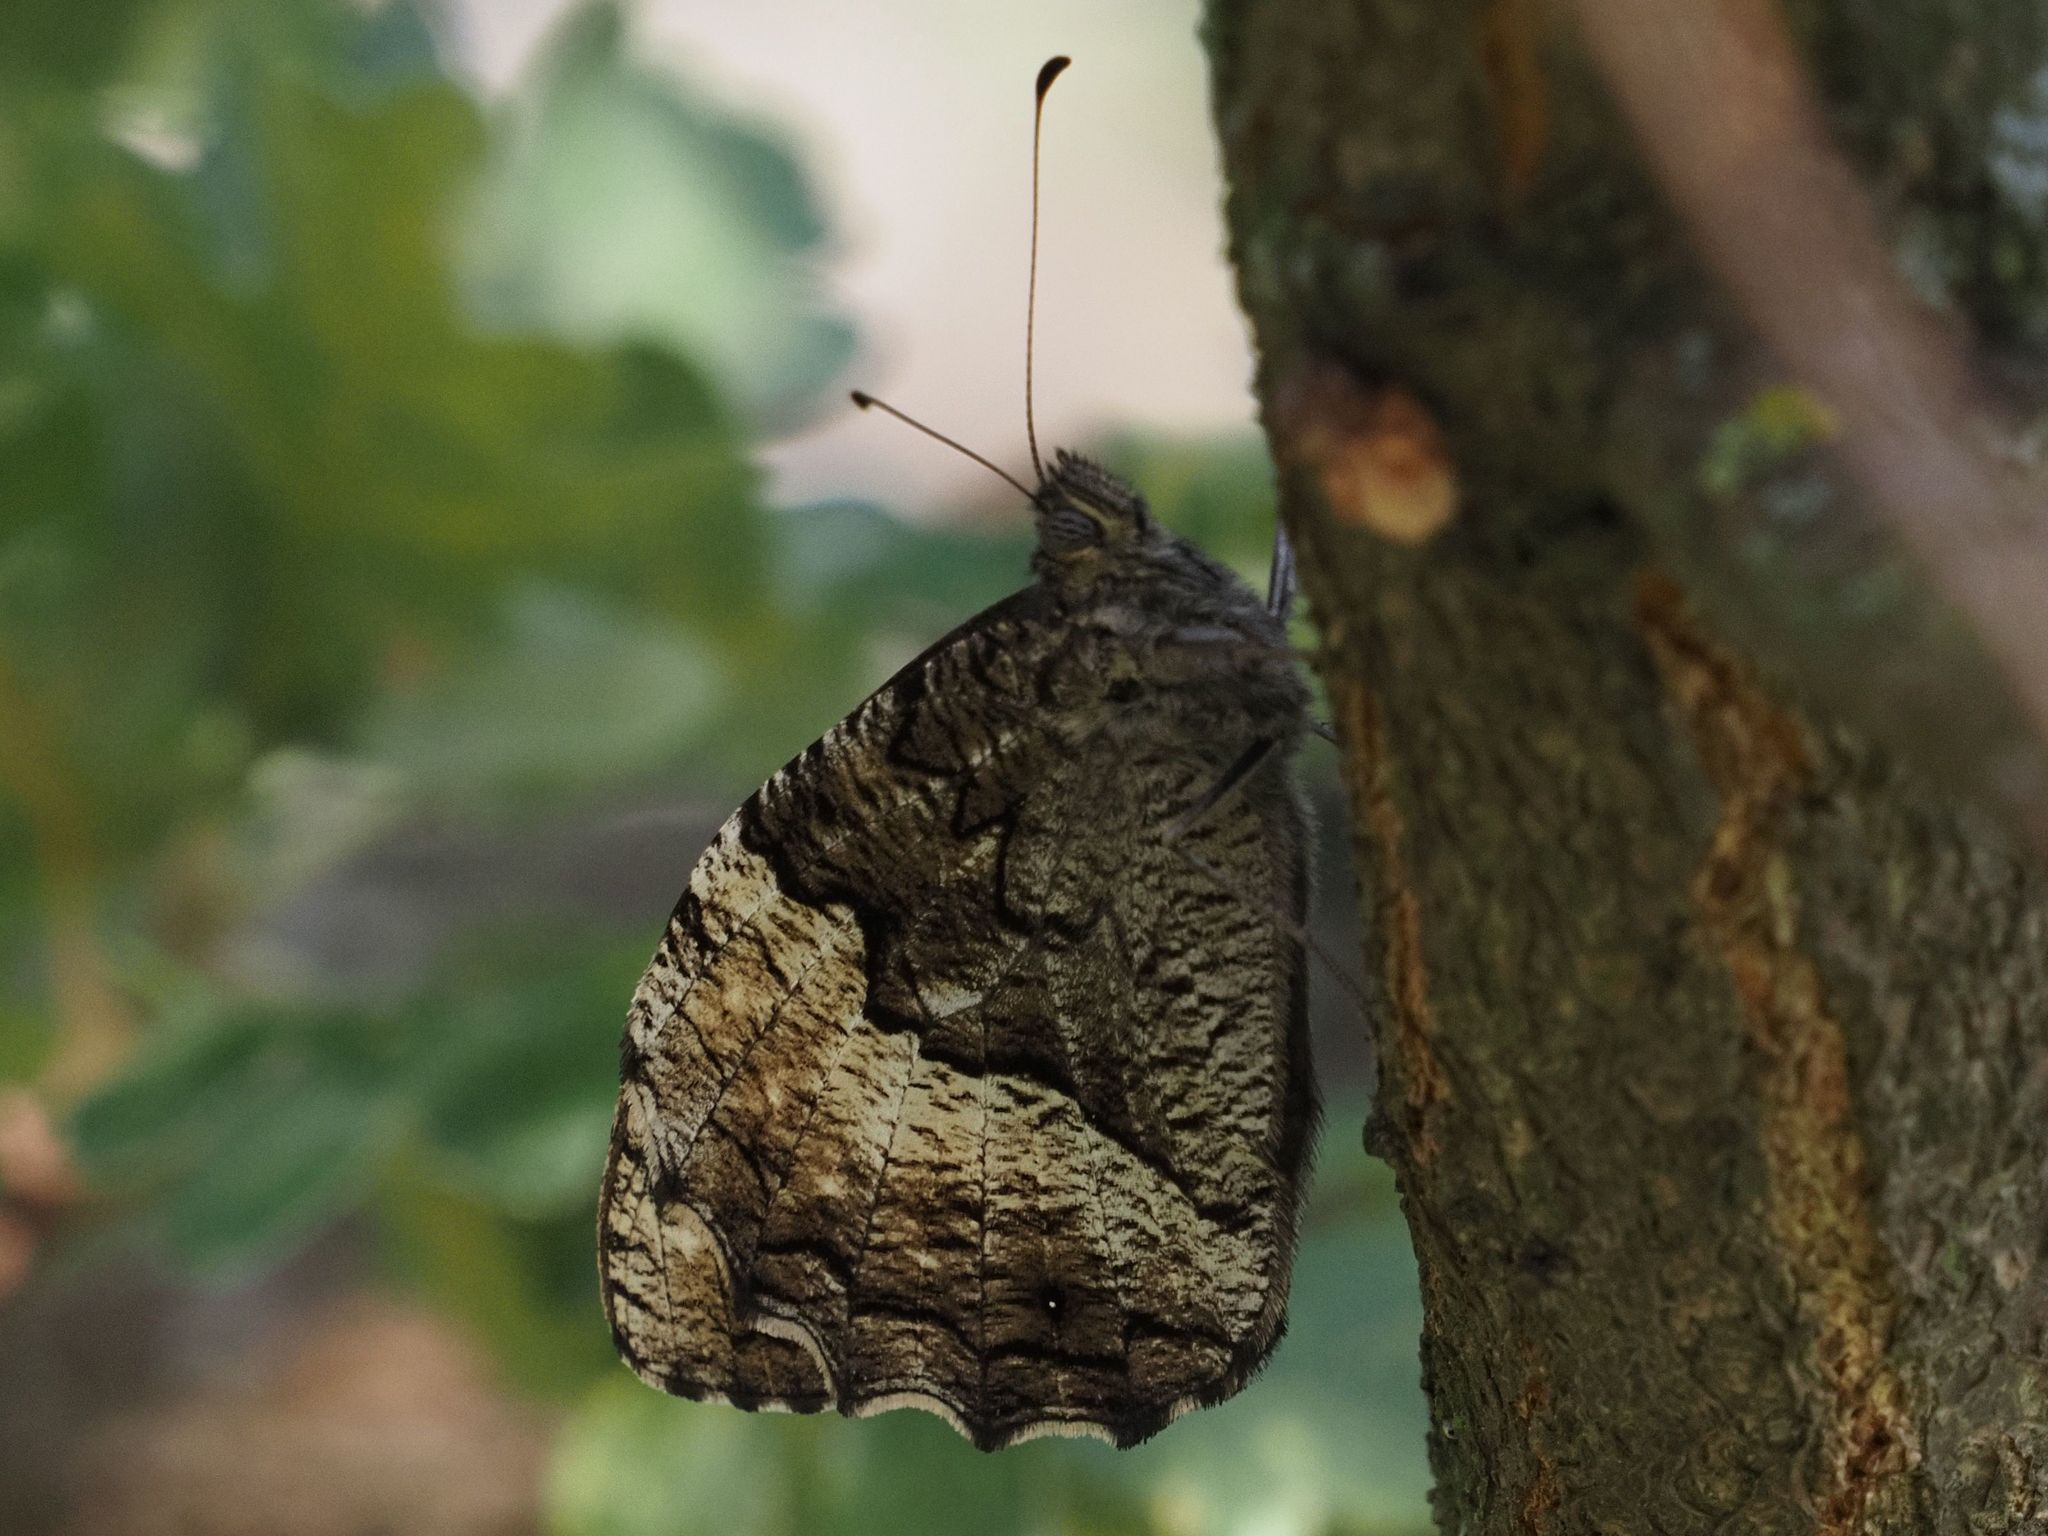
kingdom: Animalia
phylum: Arthropoda
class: Insecta
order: Lepidoptera
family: Nymphalidae
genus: Hipparchia
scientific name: Hipparchia fagi
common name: Woodland grayling
